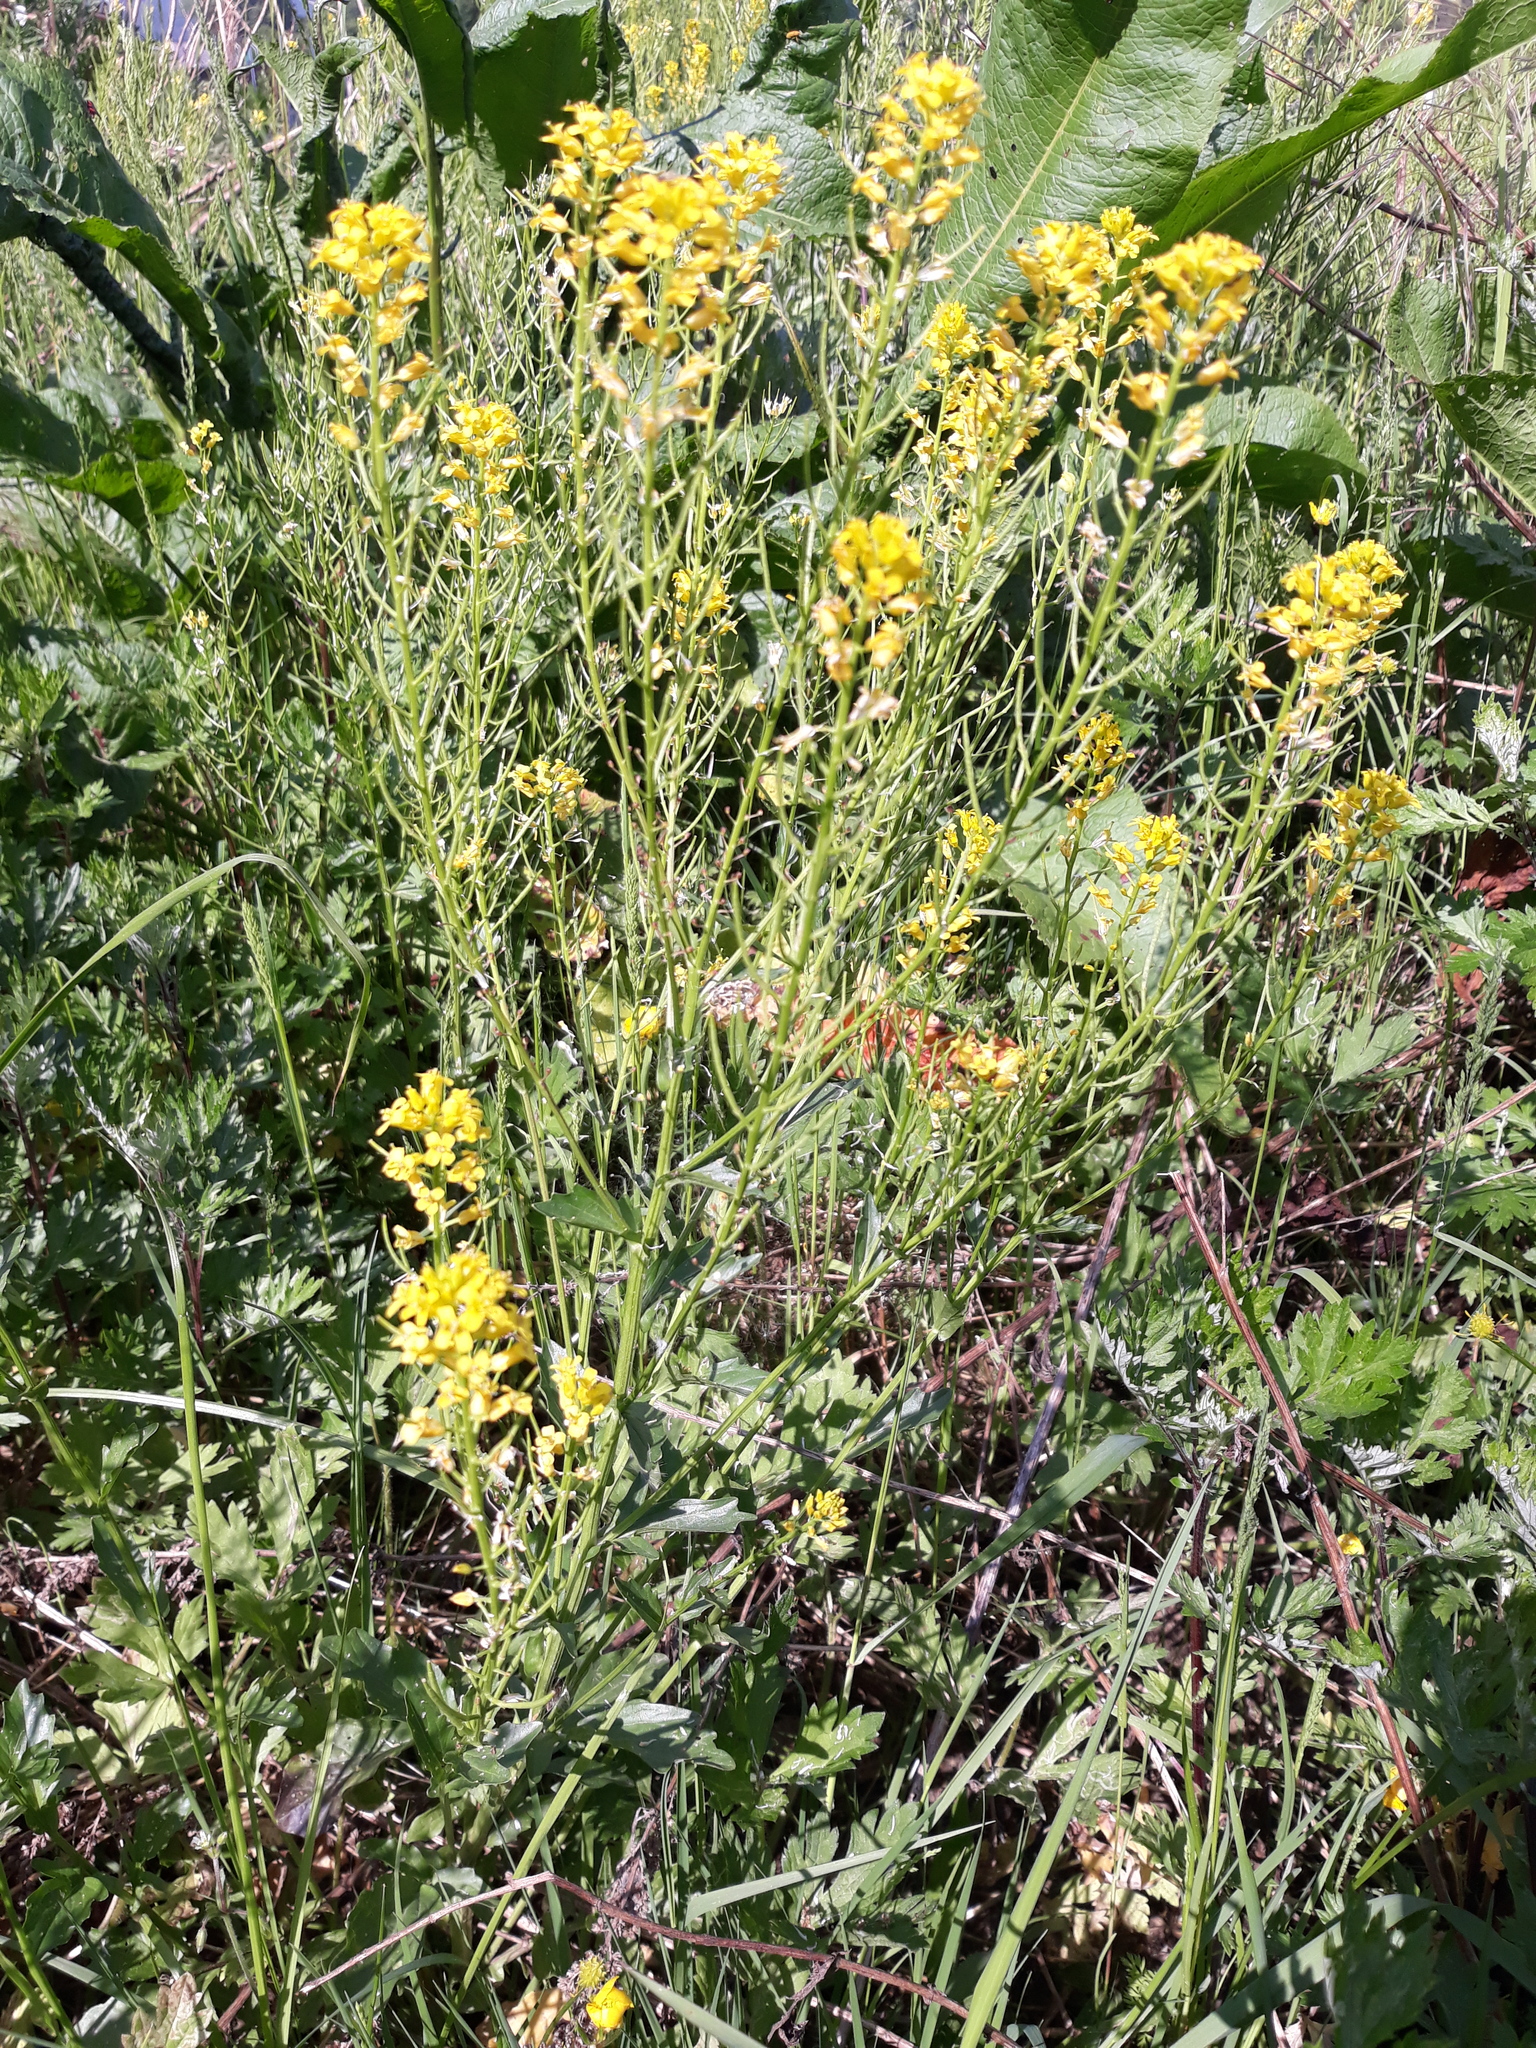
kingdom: Plantae
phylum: Tracheophyta
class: Magnoliopsida
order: Brassicales
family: Brassicaceae
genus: Barbarea
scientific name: Barbarea vulgaris
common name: Cressy-greens
